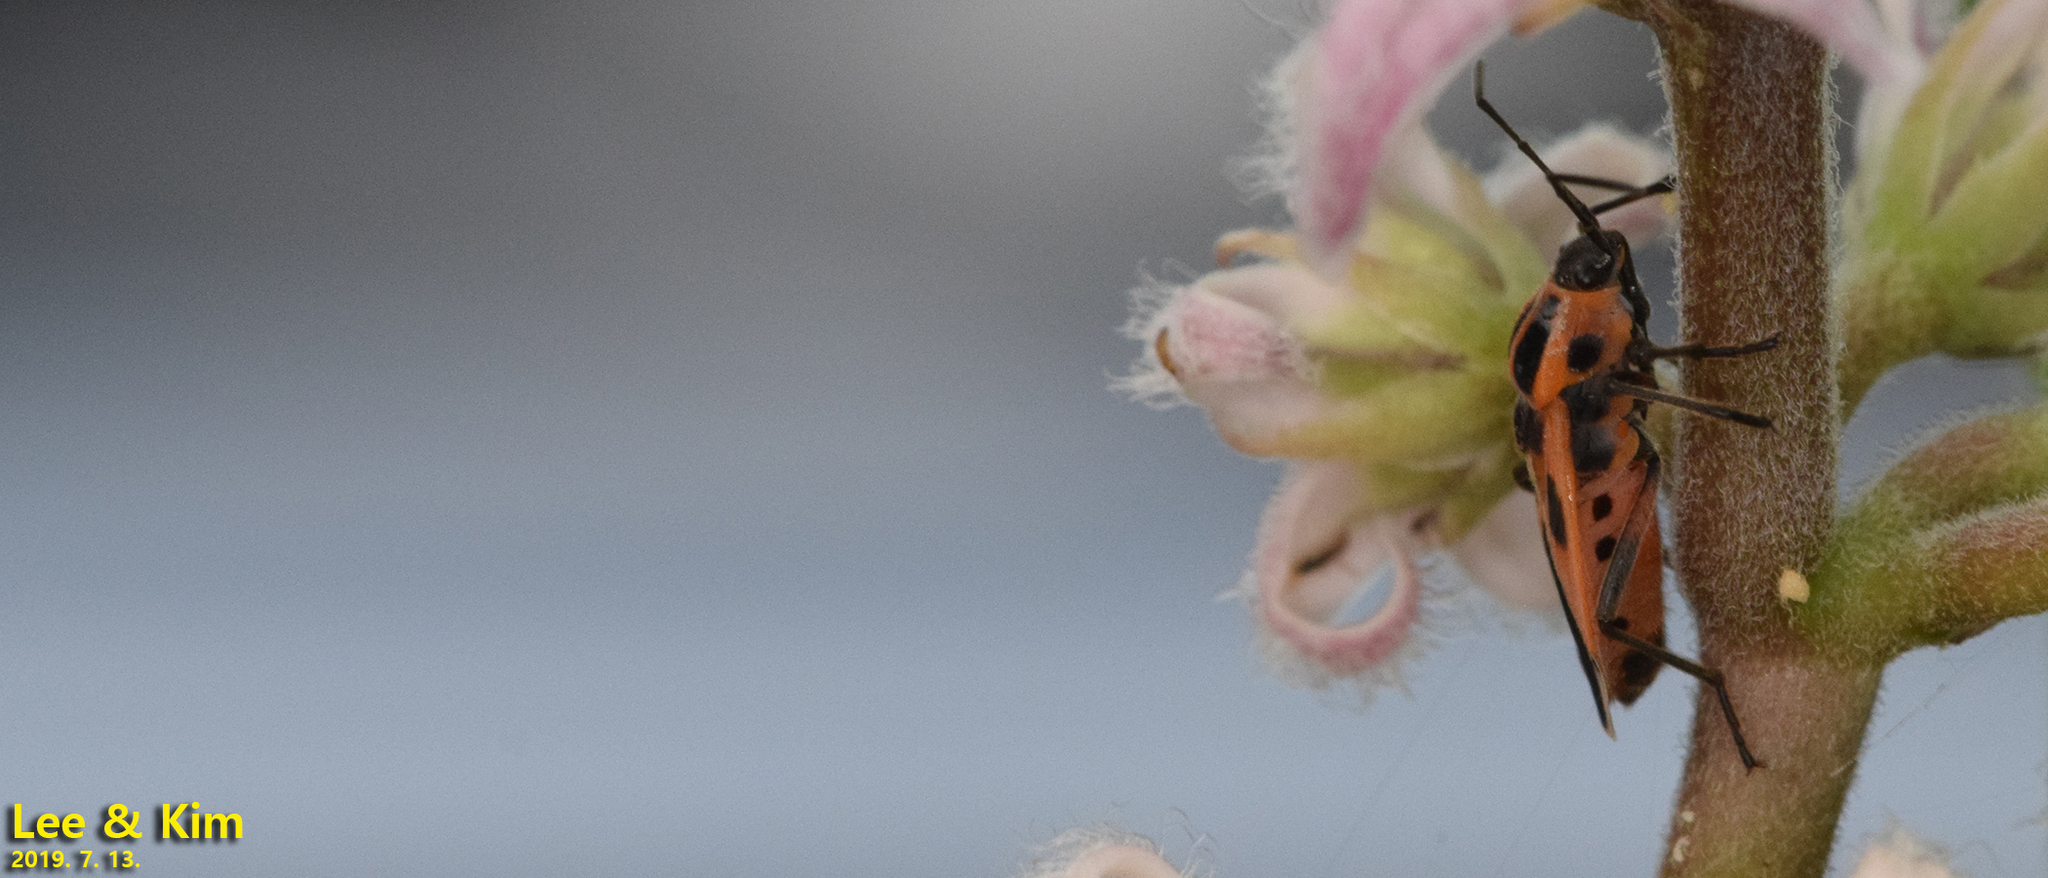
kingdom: Animalia
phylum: Arthropoda
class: Insecta
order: Hemiptera
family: Lygaeidae
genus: Tropidothorax
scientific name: Tropidothorax cruciger
